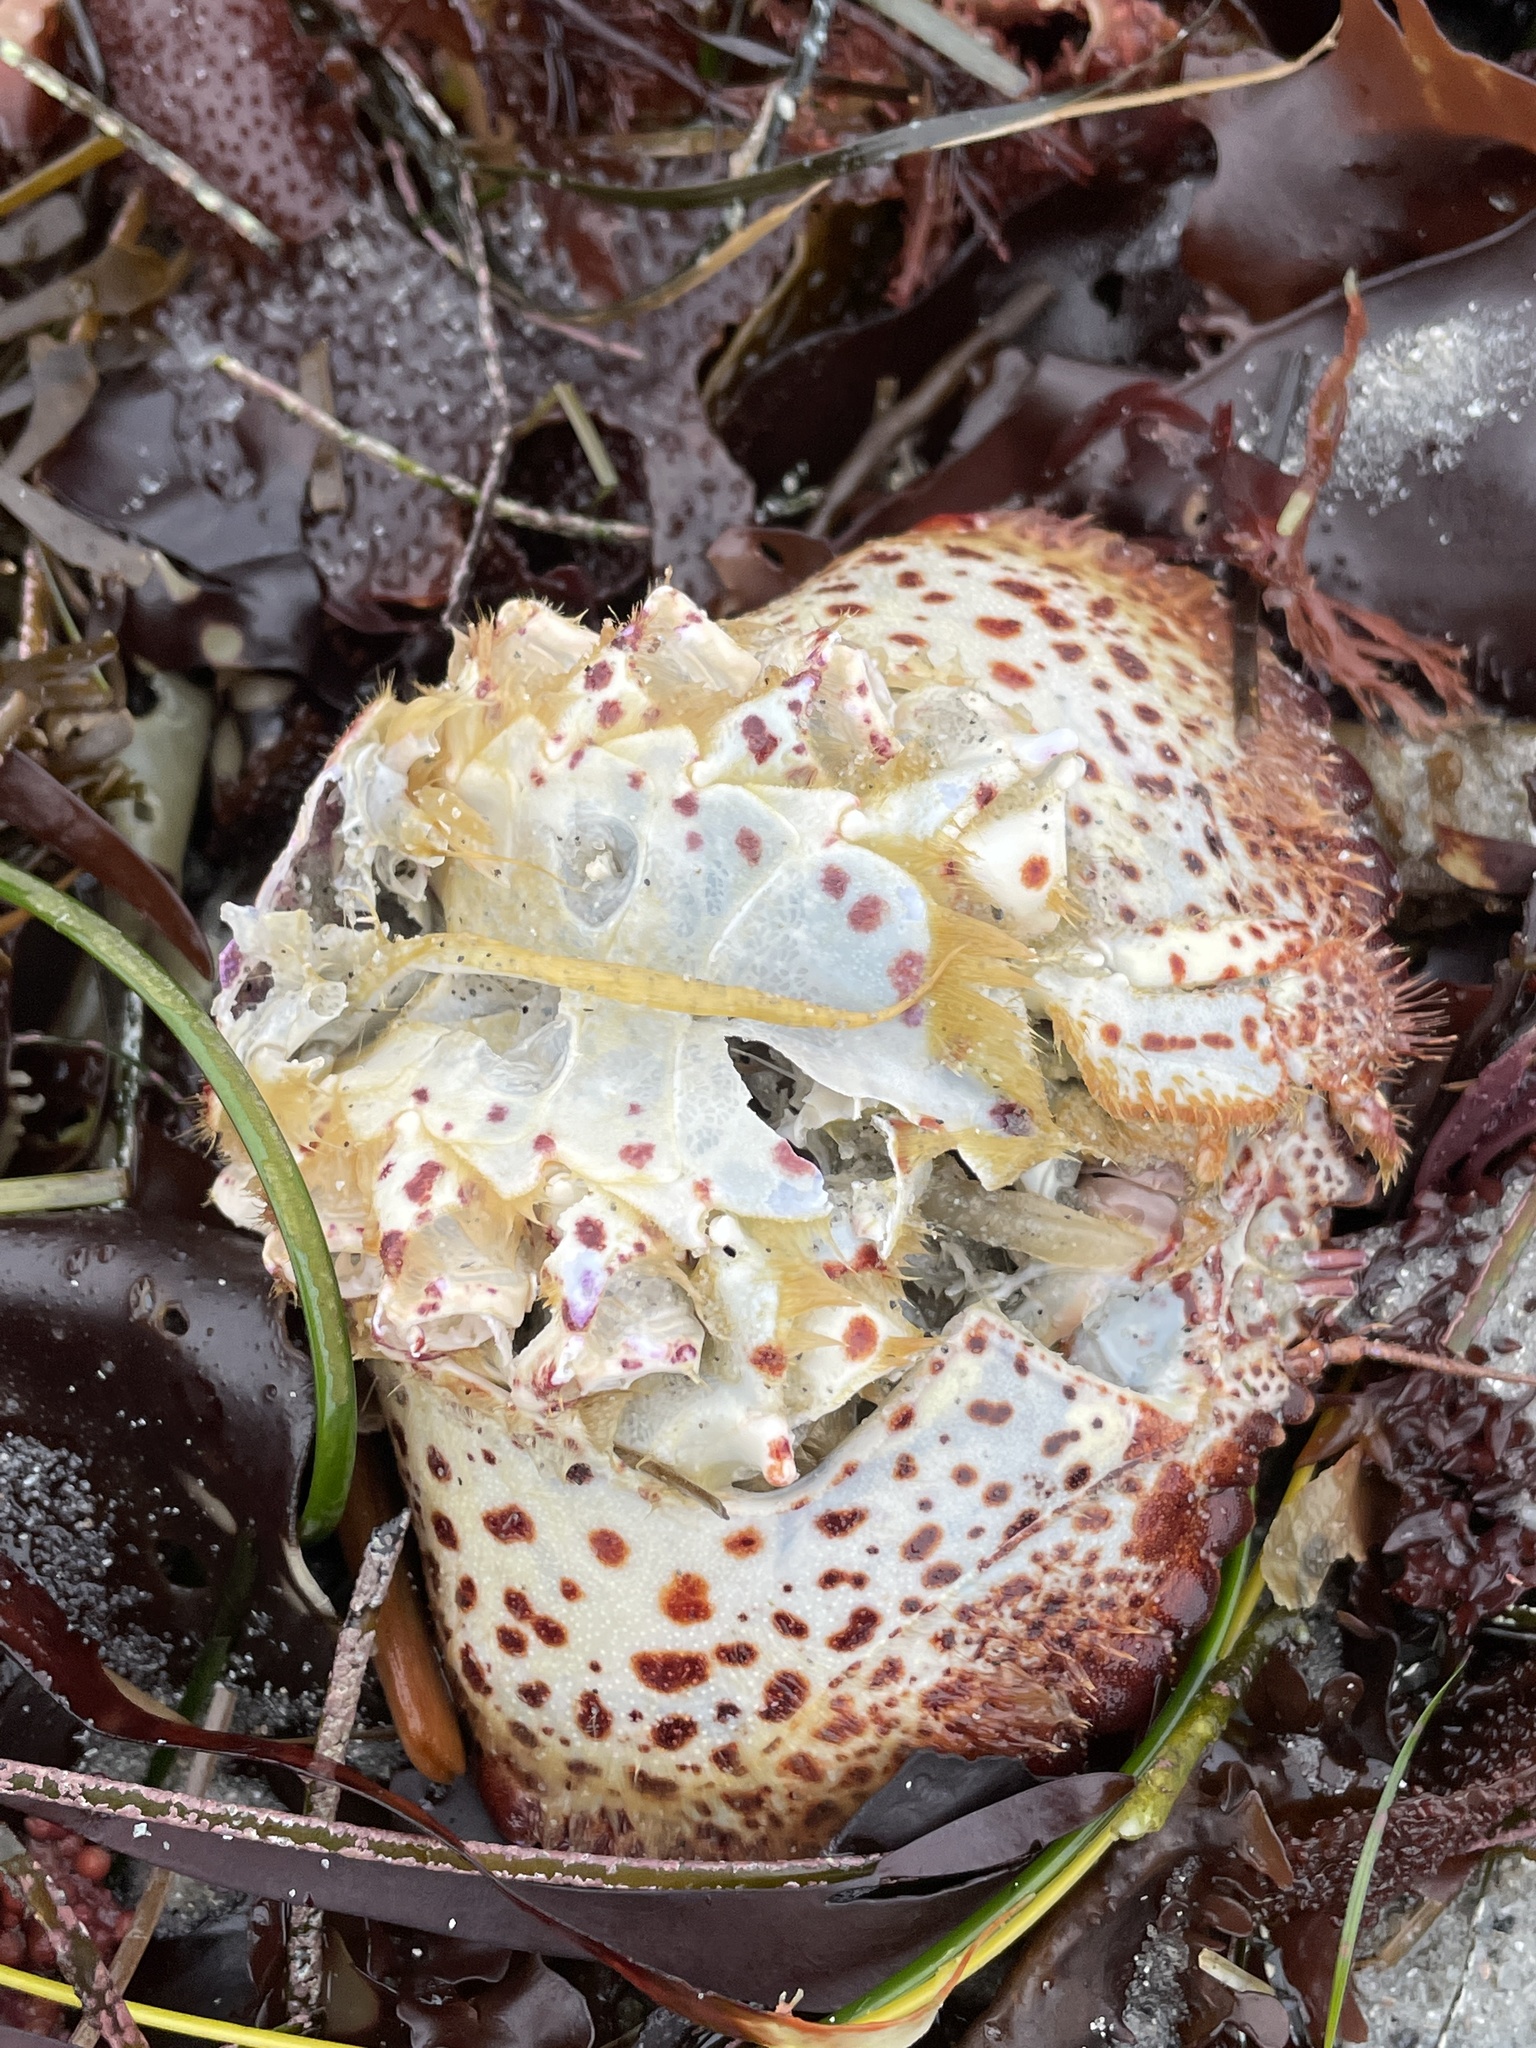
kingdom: Animalia
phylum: Arthropoda
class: Malacostraca
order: Decapoda
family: Cancridae
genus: Romaleon
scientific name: Romaleon antennarium
